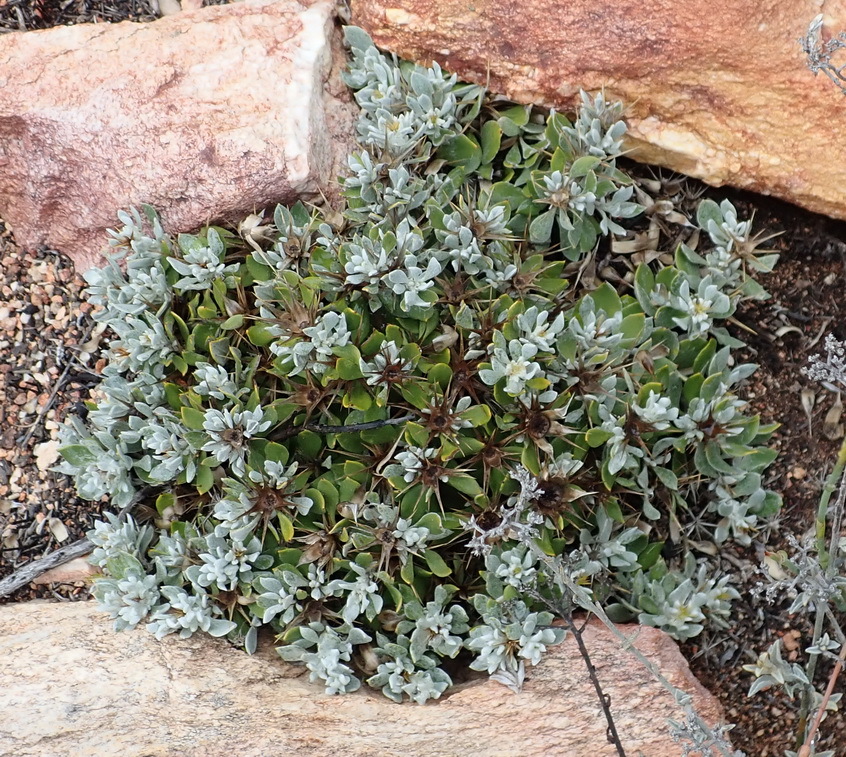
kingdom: Plantae
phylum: Tracheophyta
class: Magnoliopsida
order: Asterales
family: Asteraceae
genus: Macledium
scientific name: Macledium spinosum
